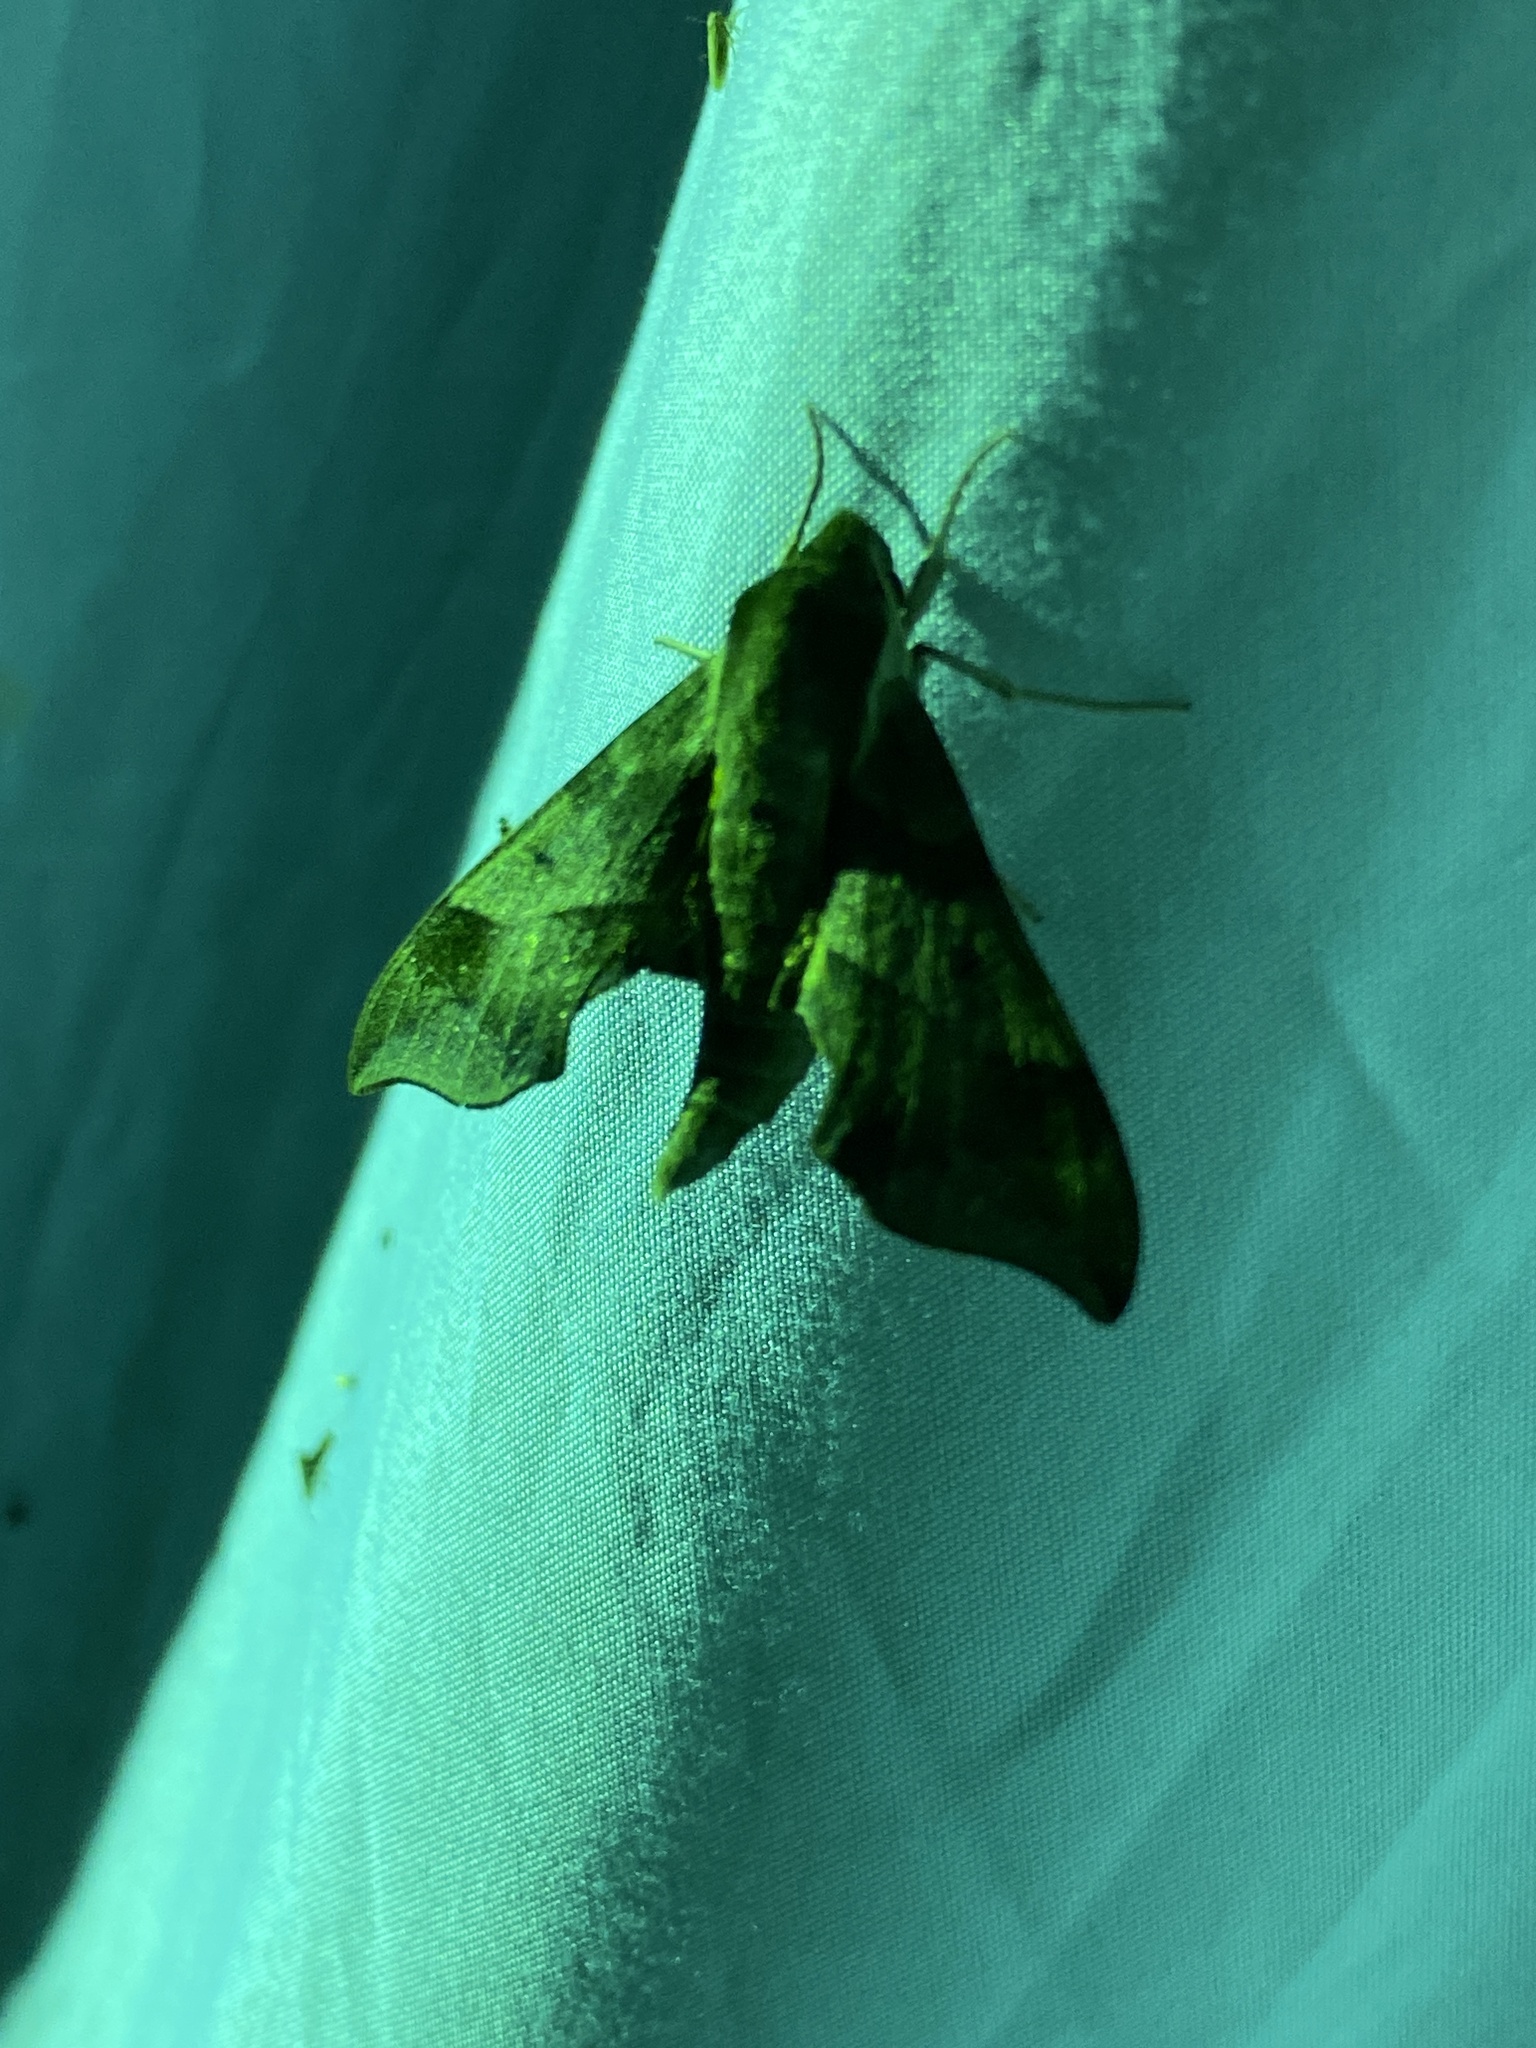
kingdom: Animalia
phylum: Arthropoda
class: Insecta
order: Lepidoptera
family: Sphingidae
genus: Darapsa
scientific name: Darapsa myron
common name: Hog sphinx
